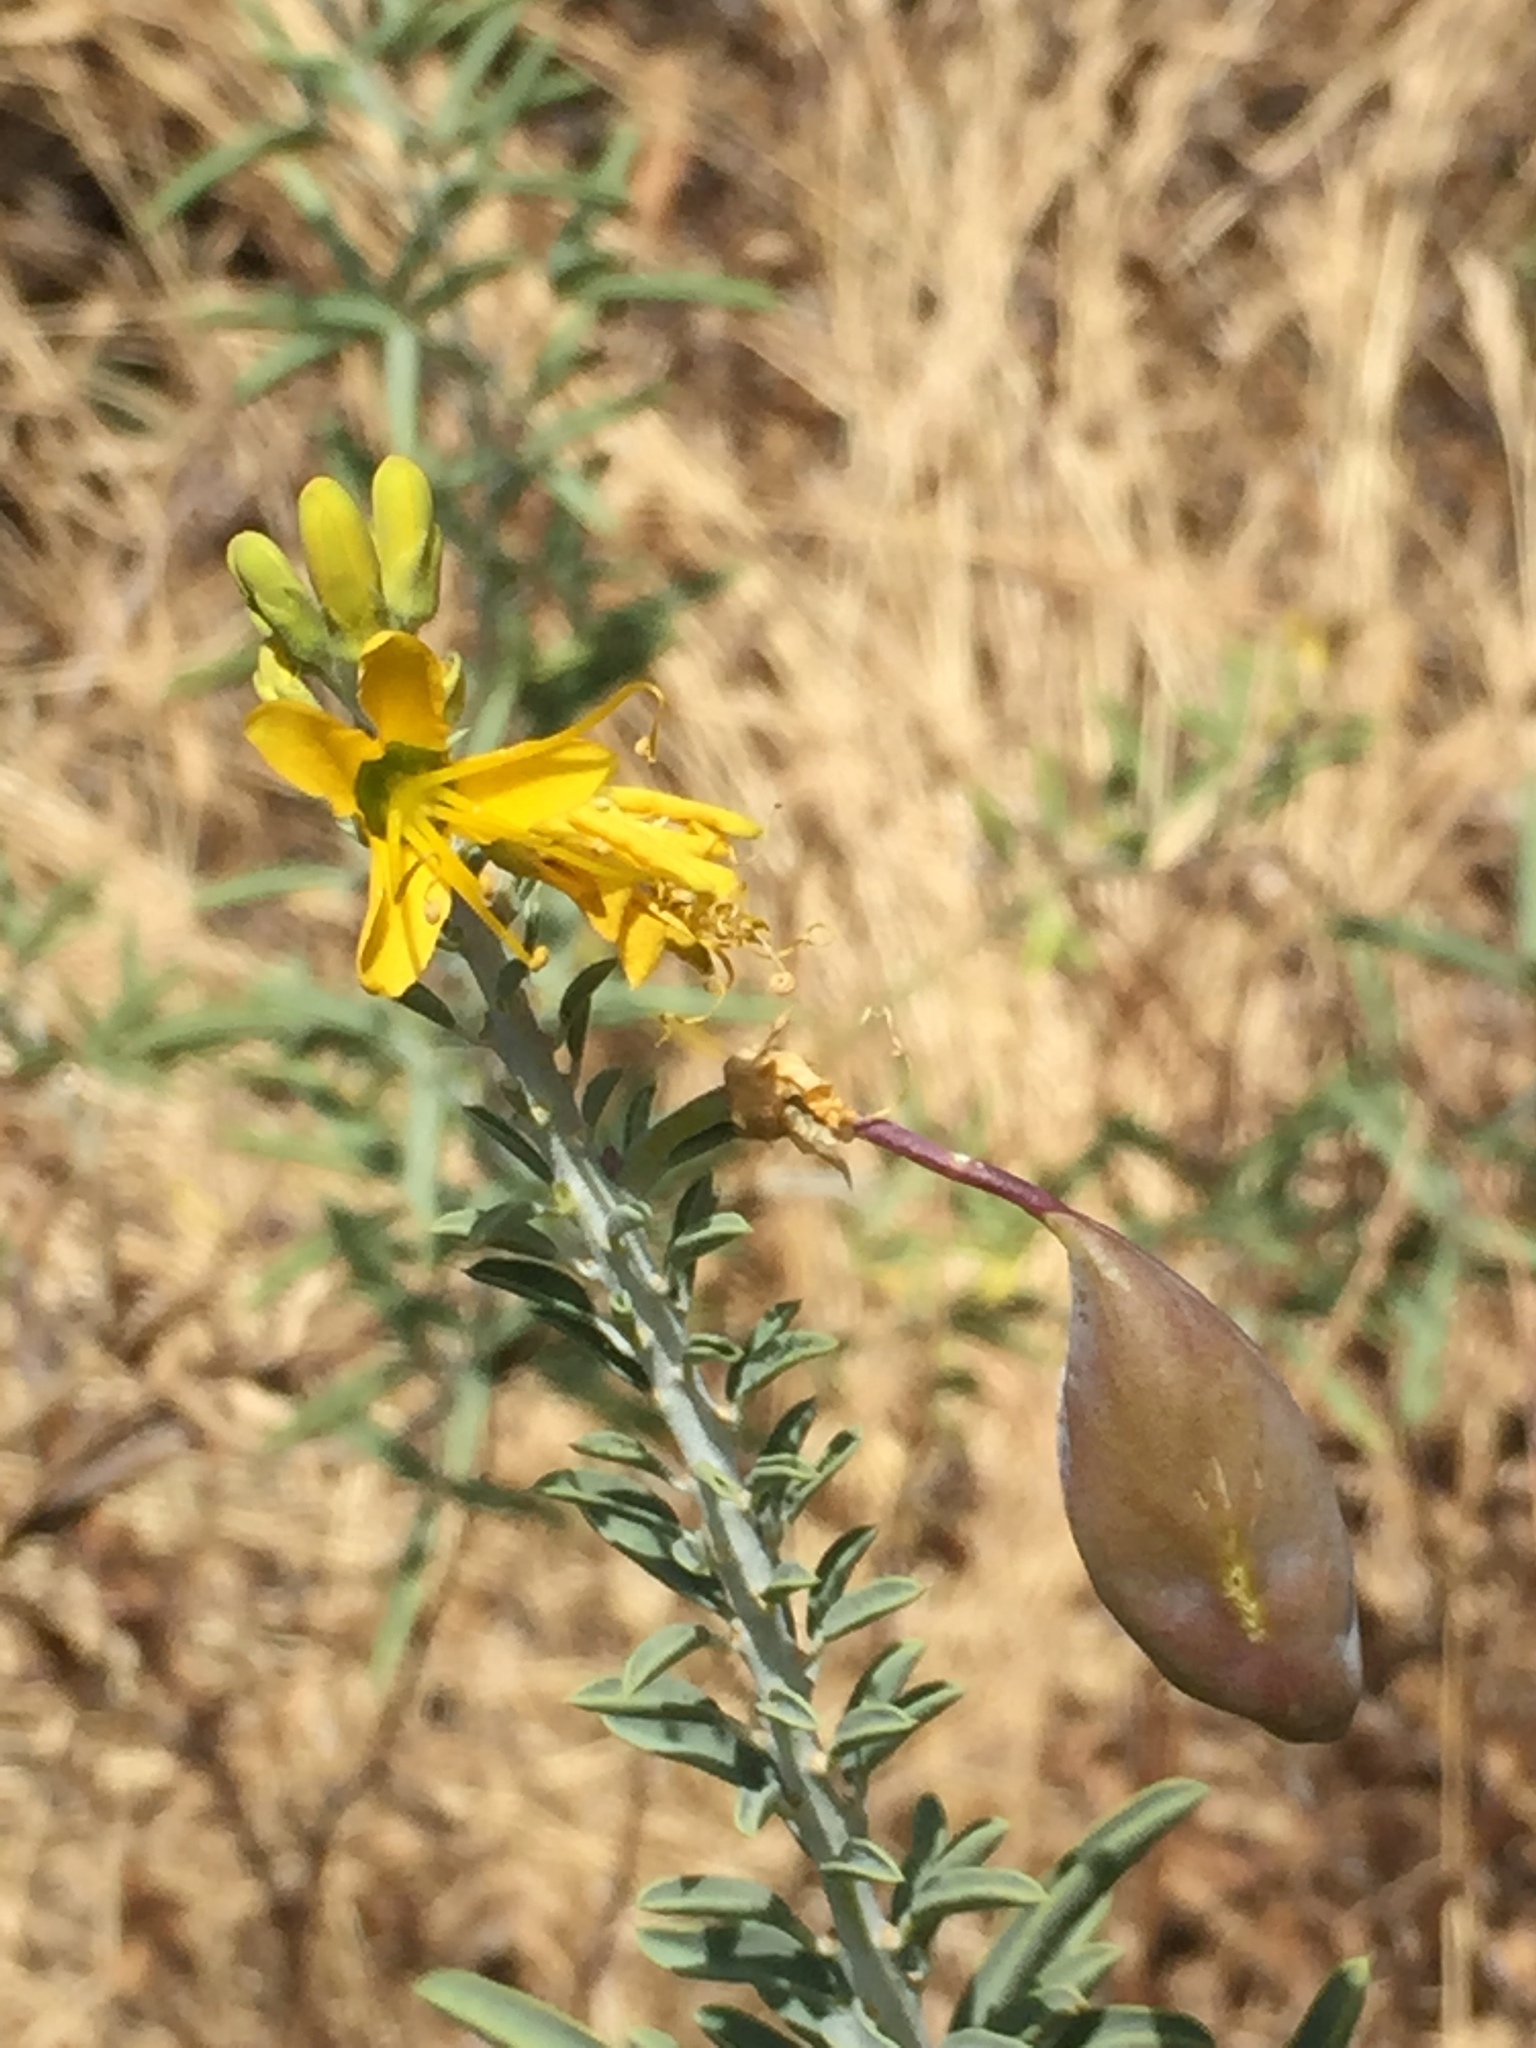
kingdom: Plantae
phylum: Tracheophyta
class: Magnoliopsida
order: Brassicales
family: Cleomaceae
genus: Cleomella
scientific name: Cleomella arborea
